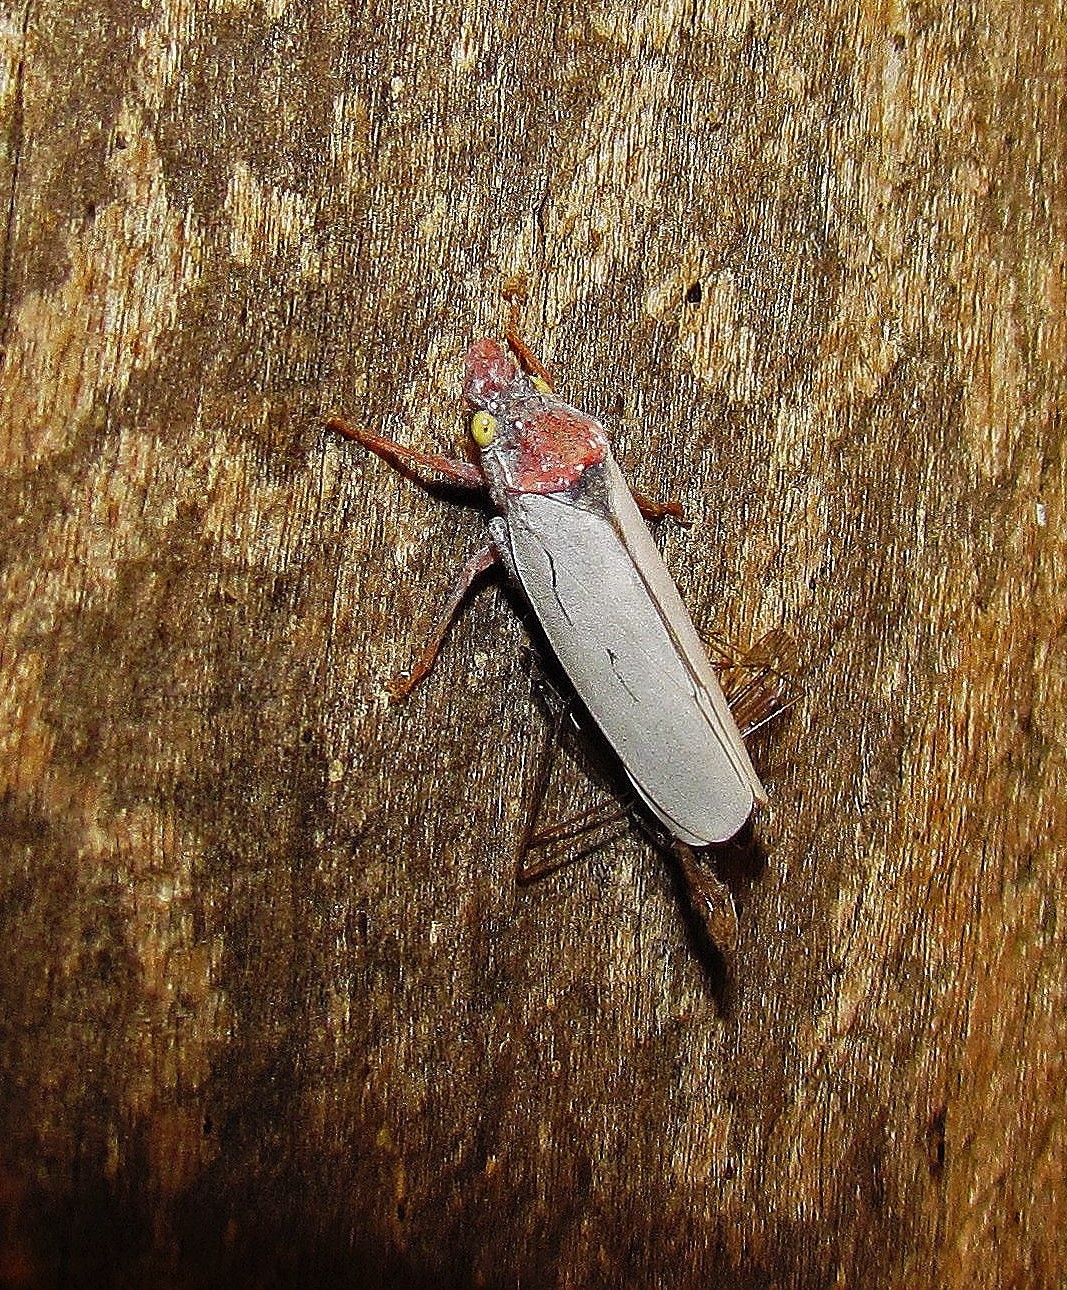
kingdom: Animalia
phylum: Arthropoda
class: Insecta
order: Hemiptera
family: Cicadellidae
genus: Diestostemma
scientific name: Diestostemma ptolyca
